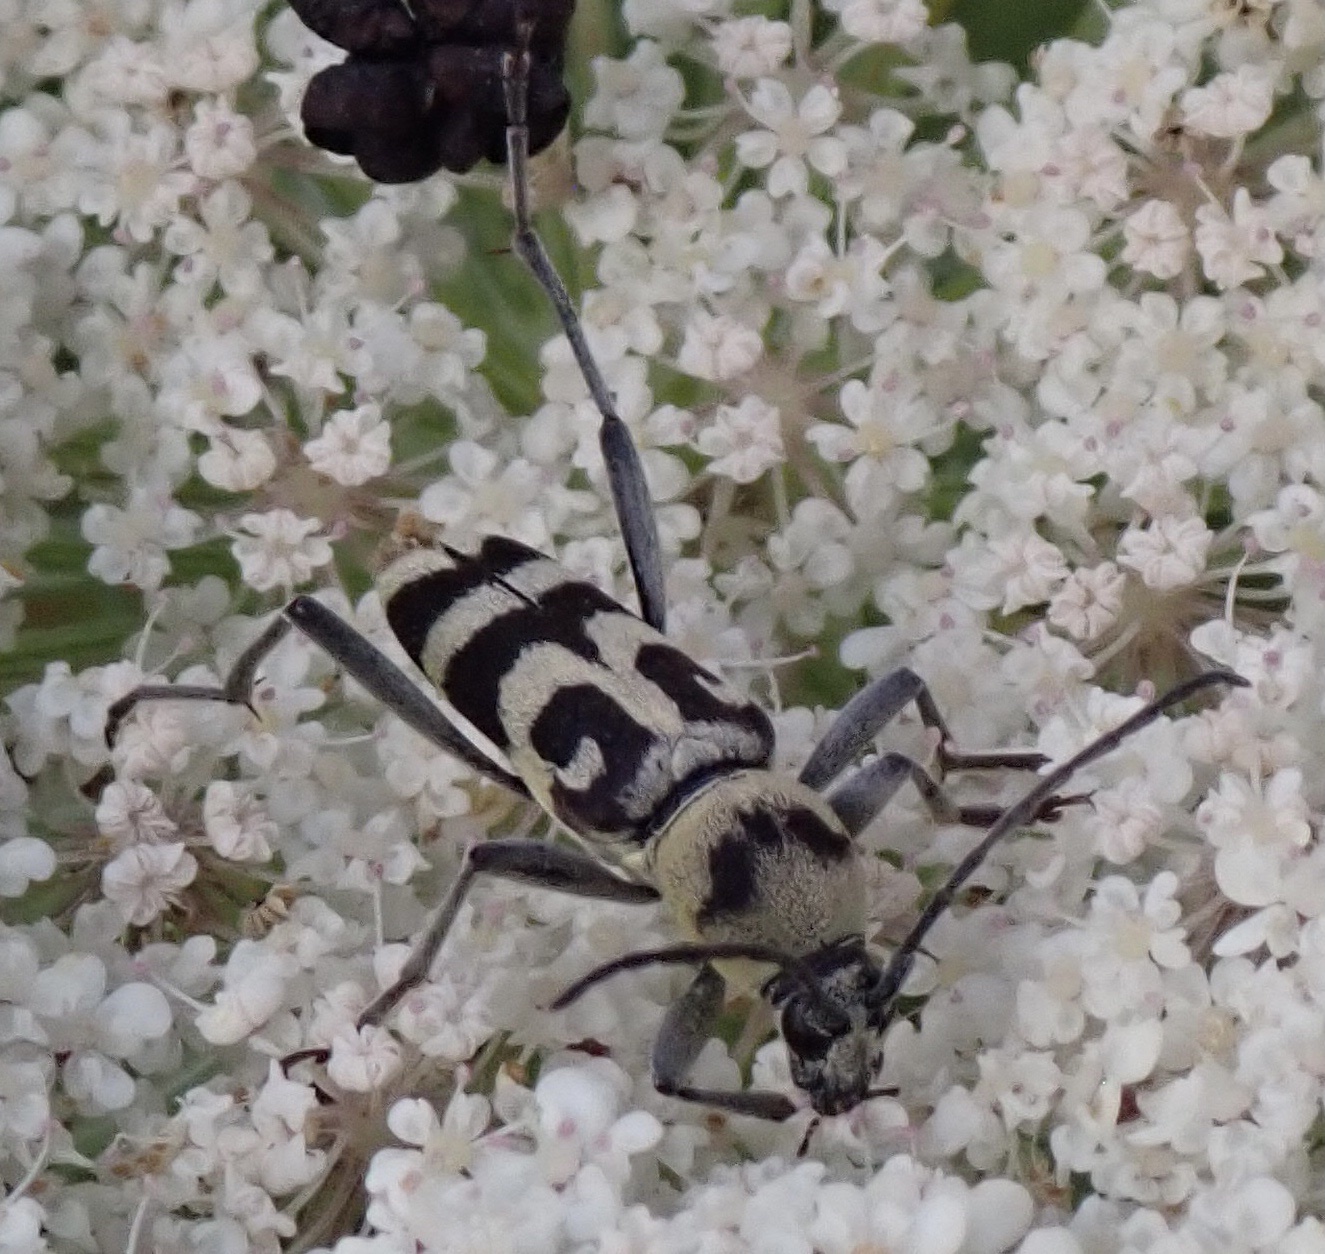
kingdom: Animalia
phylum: Arthropoda
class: Insecta
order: Coleoptera
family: Cerambycidae
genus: Chlorophorus
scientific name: Chlorophorus varius
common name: Grape wood borer
